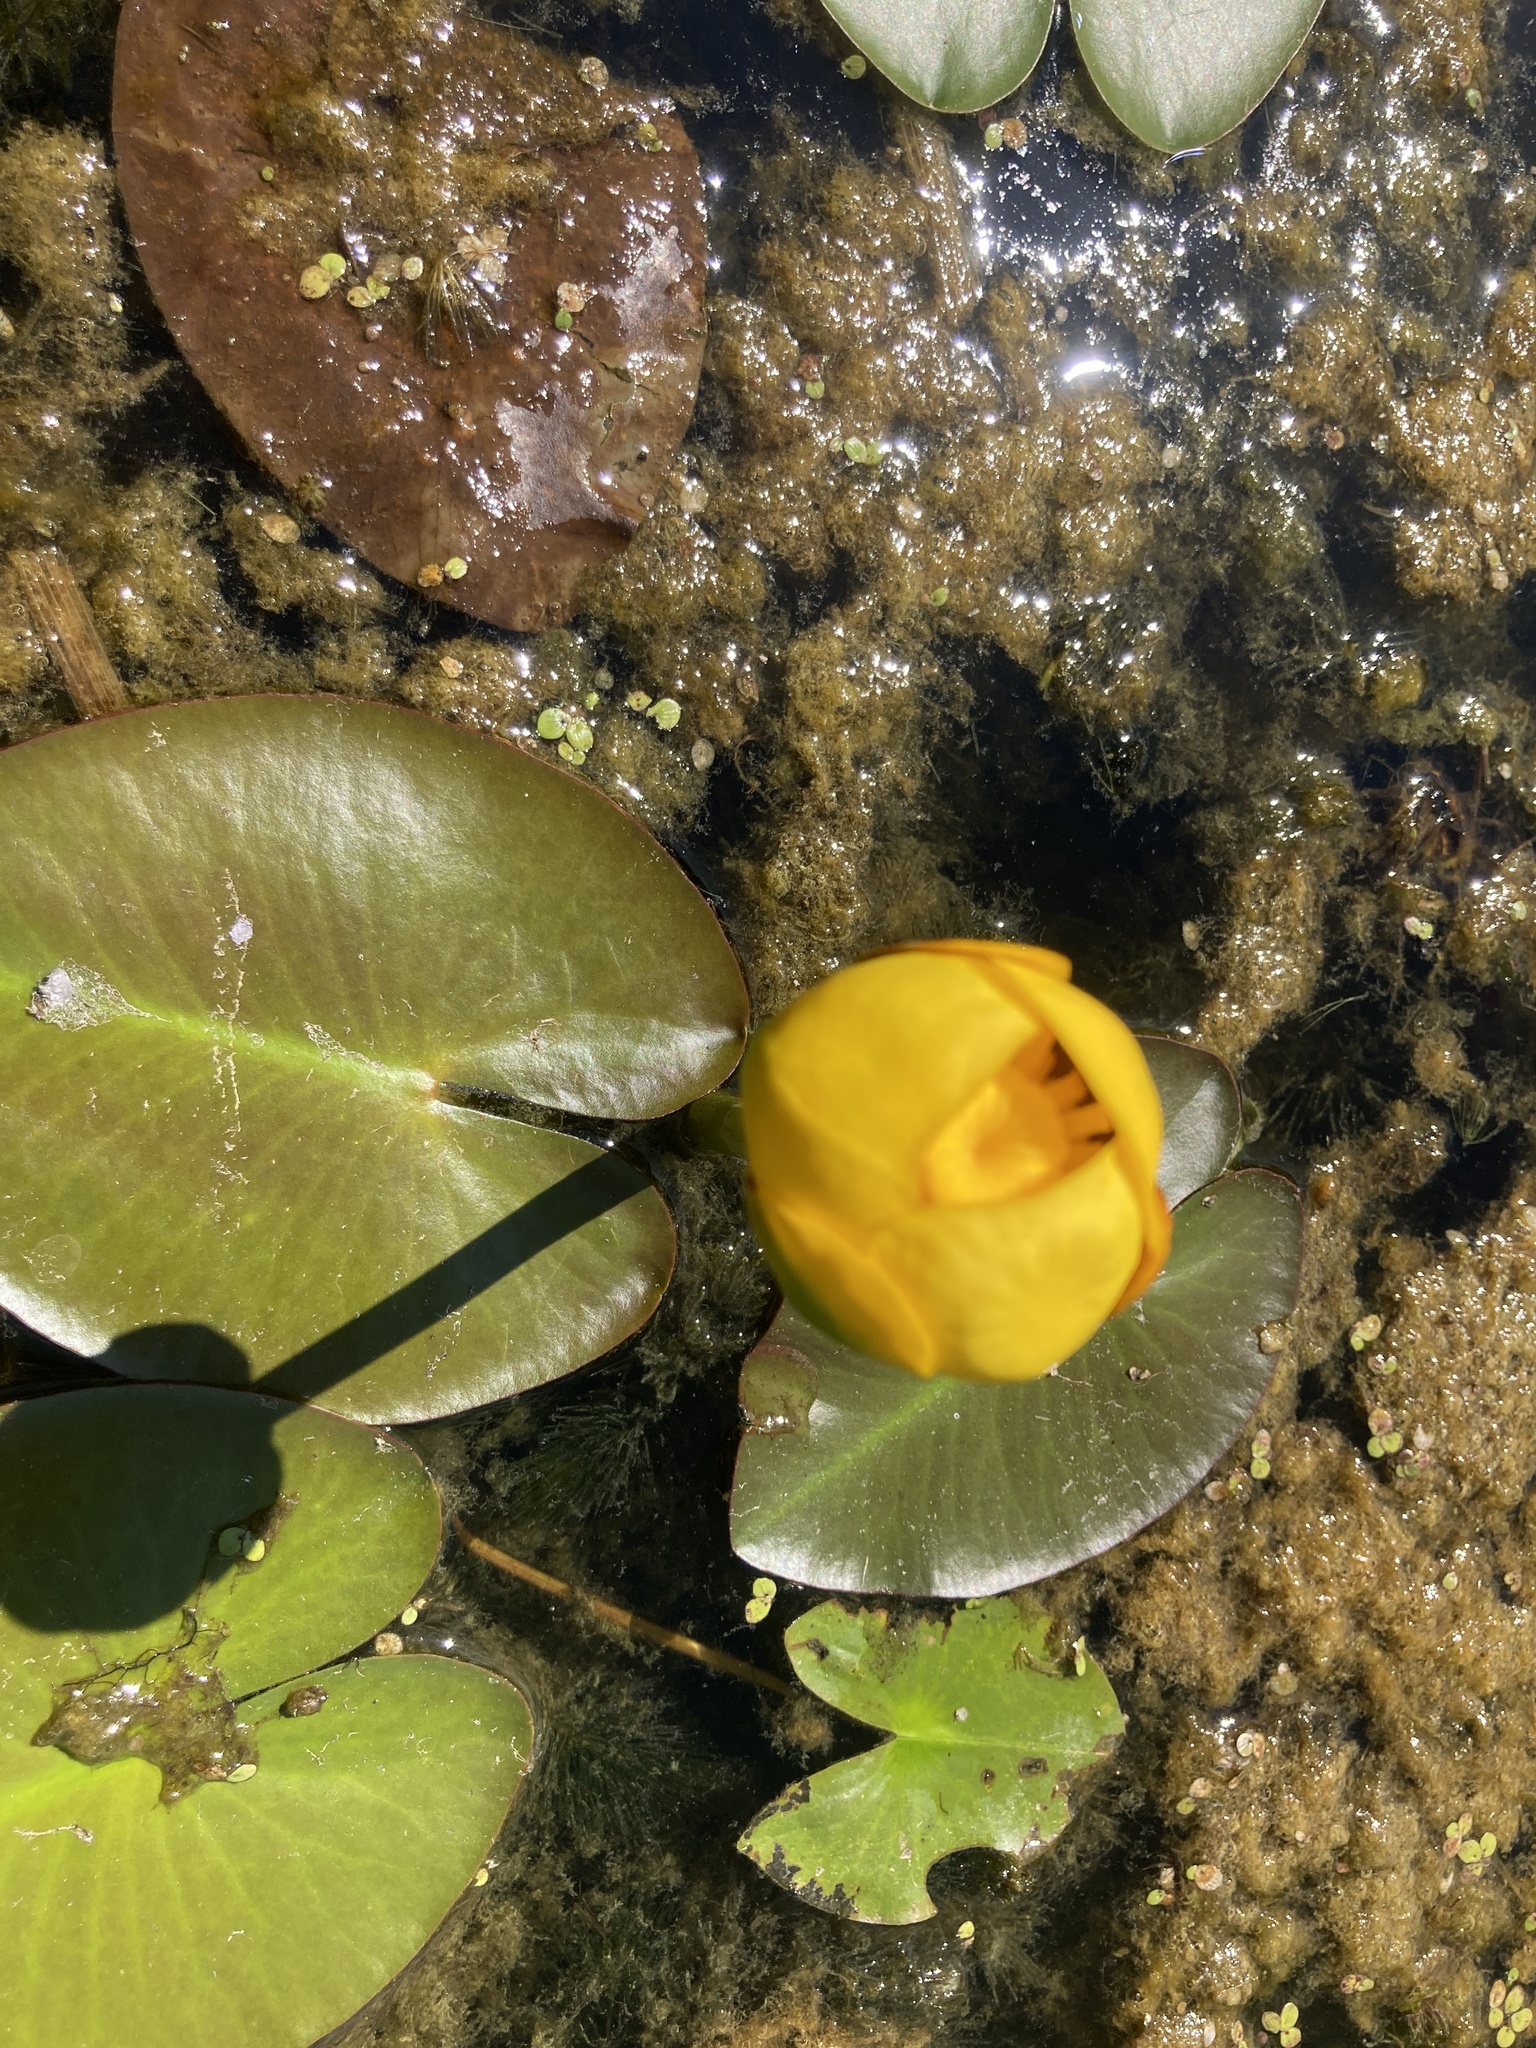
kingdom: Plantae
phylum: Tracheophyta
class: Magnoliopsida
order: Nymphaeales
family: Nymphaeaceae
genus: Nuphar
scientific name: Nuphar variegata
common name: Beaver-root
